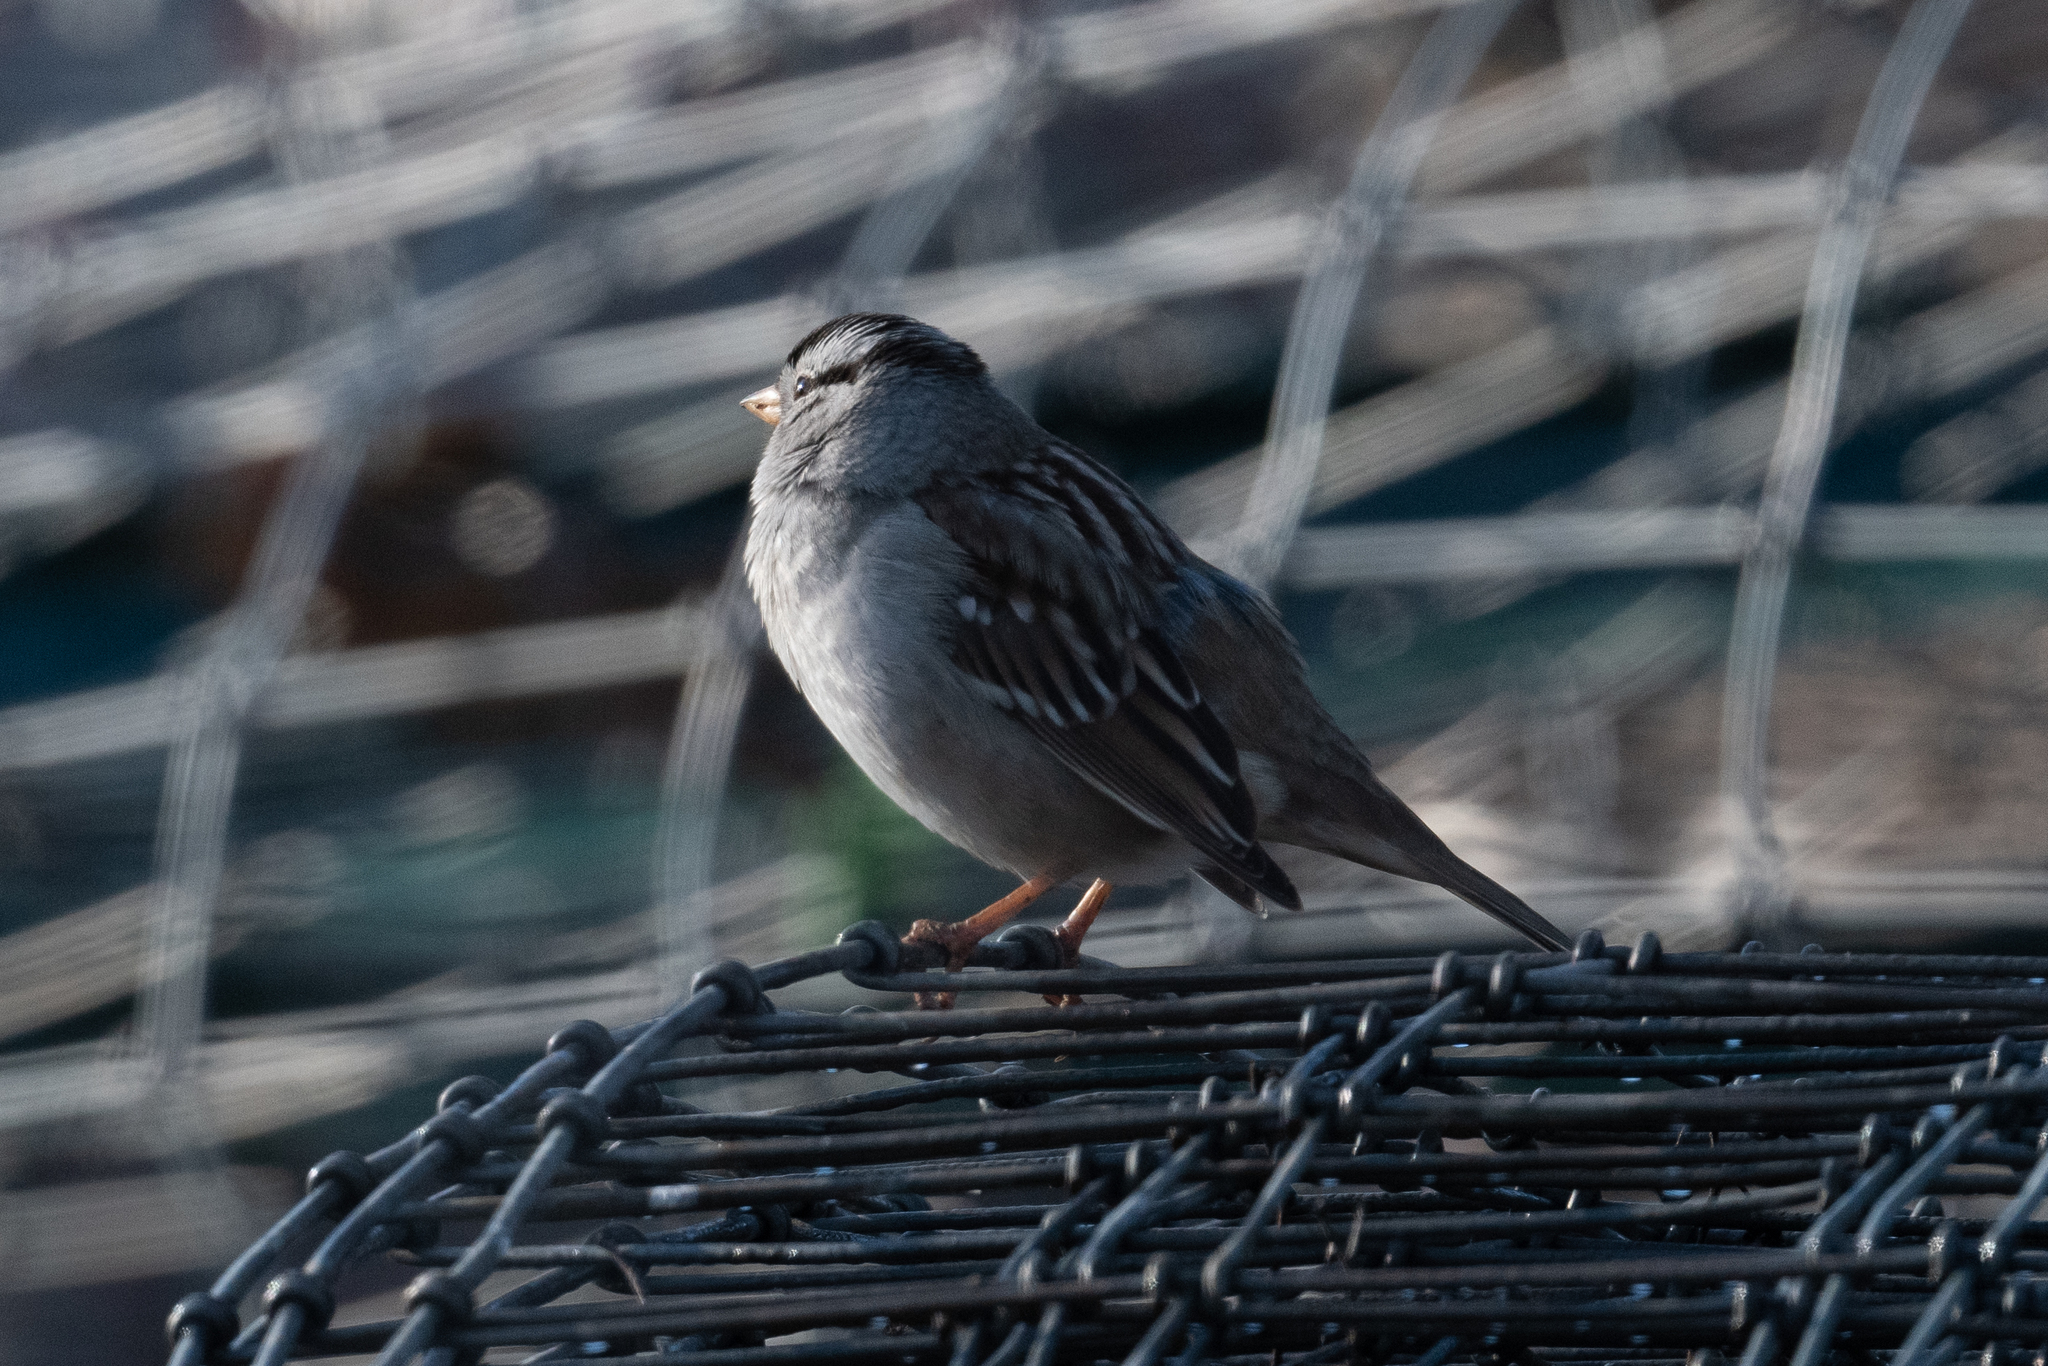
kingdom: Animalia
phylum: Chordata
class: Aves
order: Passeriformes
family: Passerellidae
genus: Zonotrichia
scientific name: Zonotrichia leucophrys
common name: White-crowned sparrow
